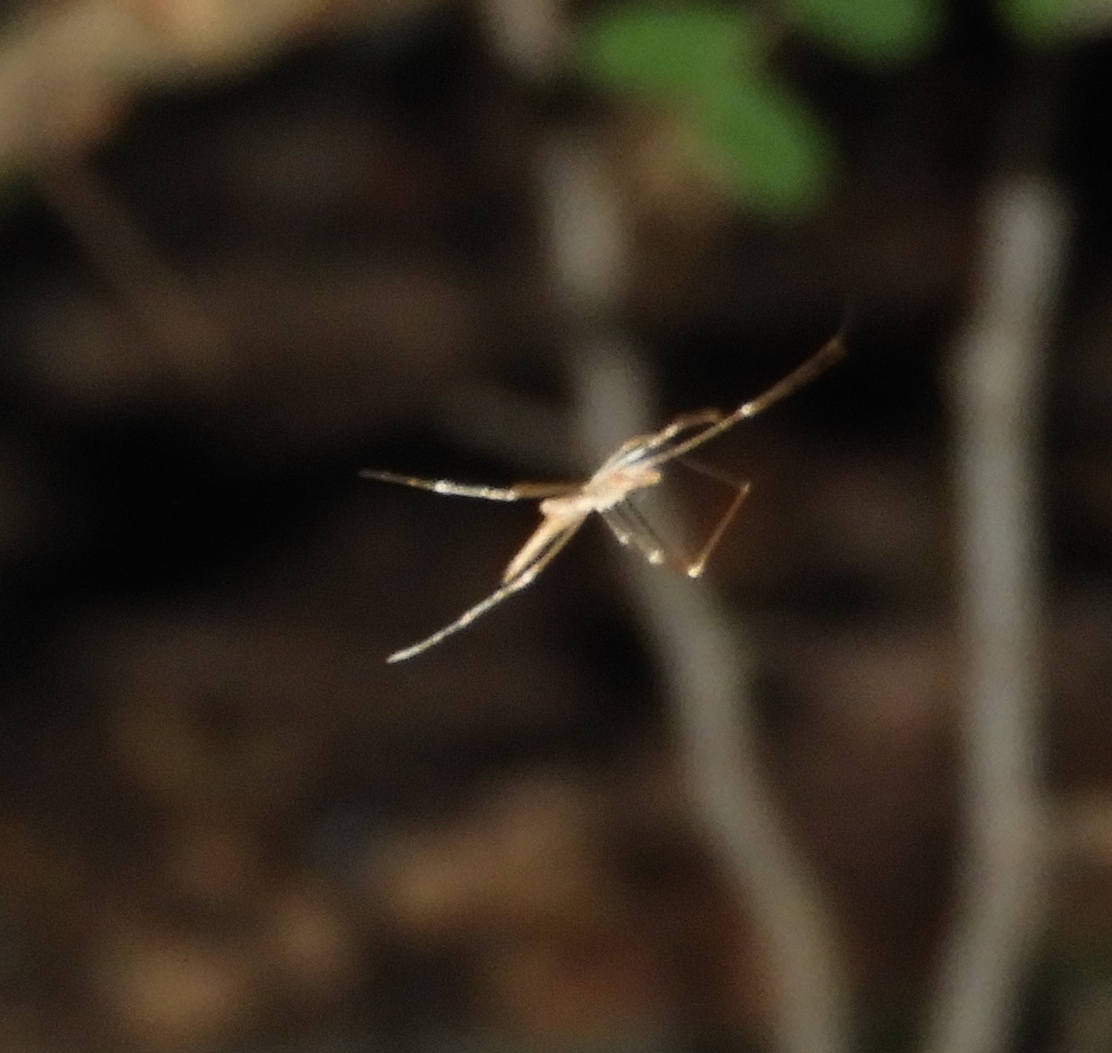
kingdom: Animalia
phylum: Arthropoda
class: Arachnida
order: Araneae
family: Theridiidae
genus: Rhomphaea
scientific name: Rhomphaea
